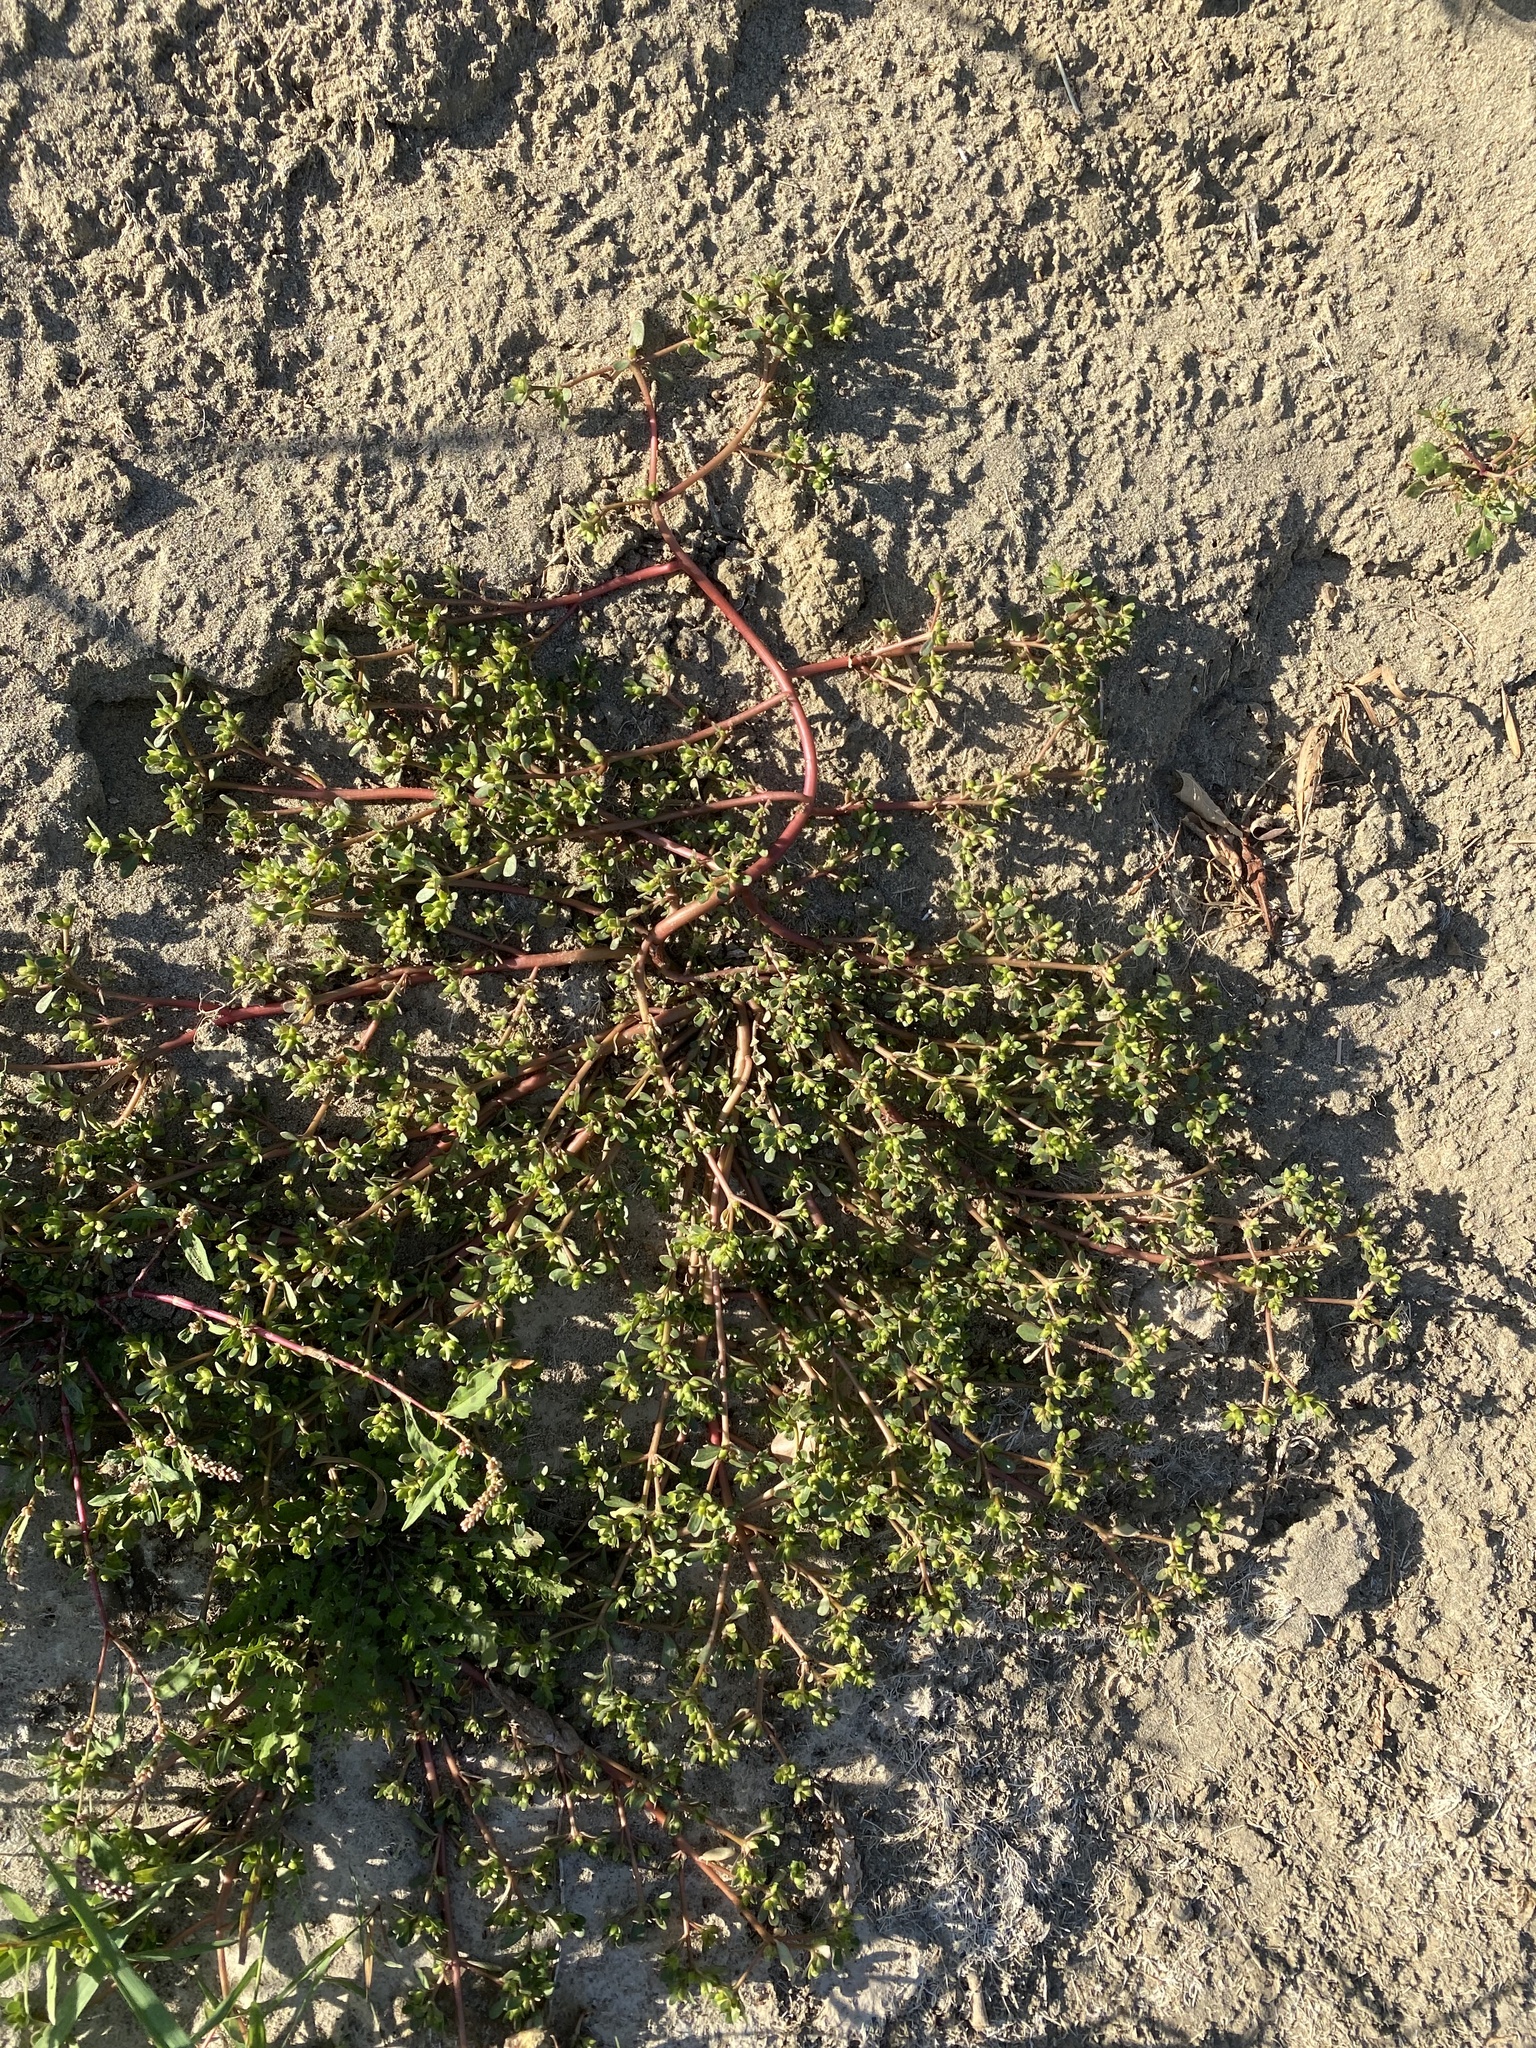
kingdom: Plantae
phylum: Tracheophyta
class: Magnoliopsida
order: Caryophyllales
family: Portulacaceae
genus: Portulaca
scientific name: Portulaca oleracea
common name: Common purslane
